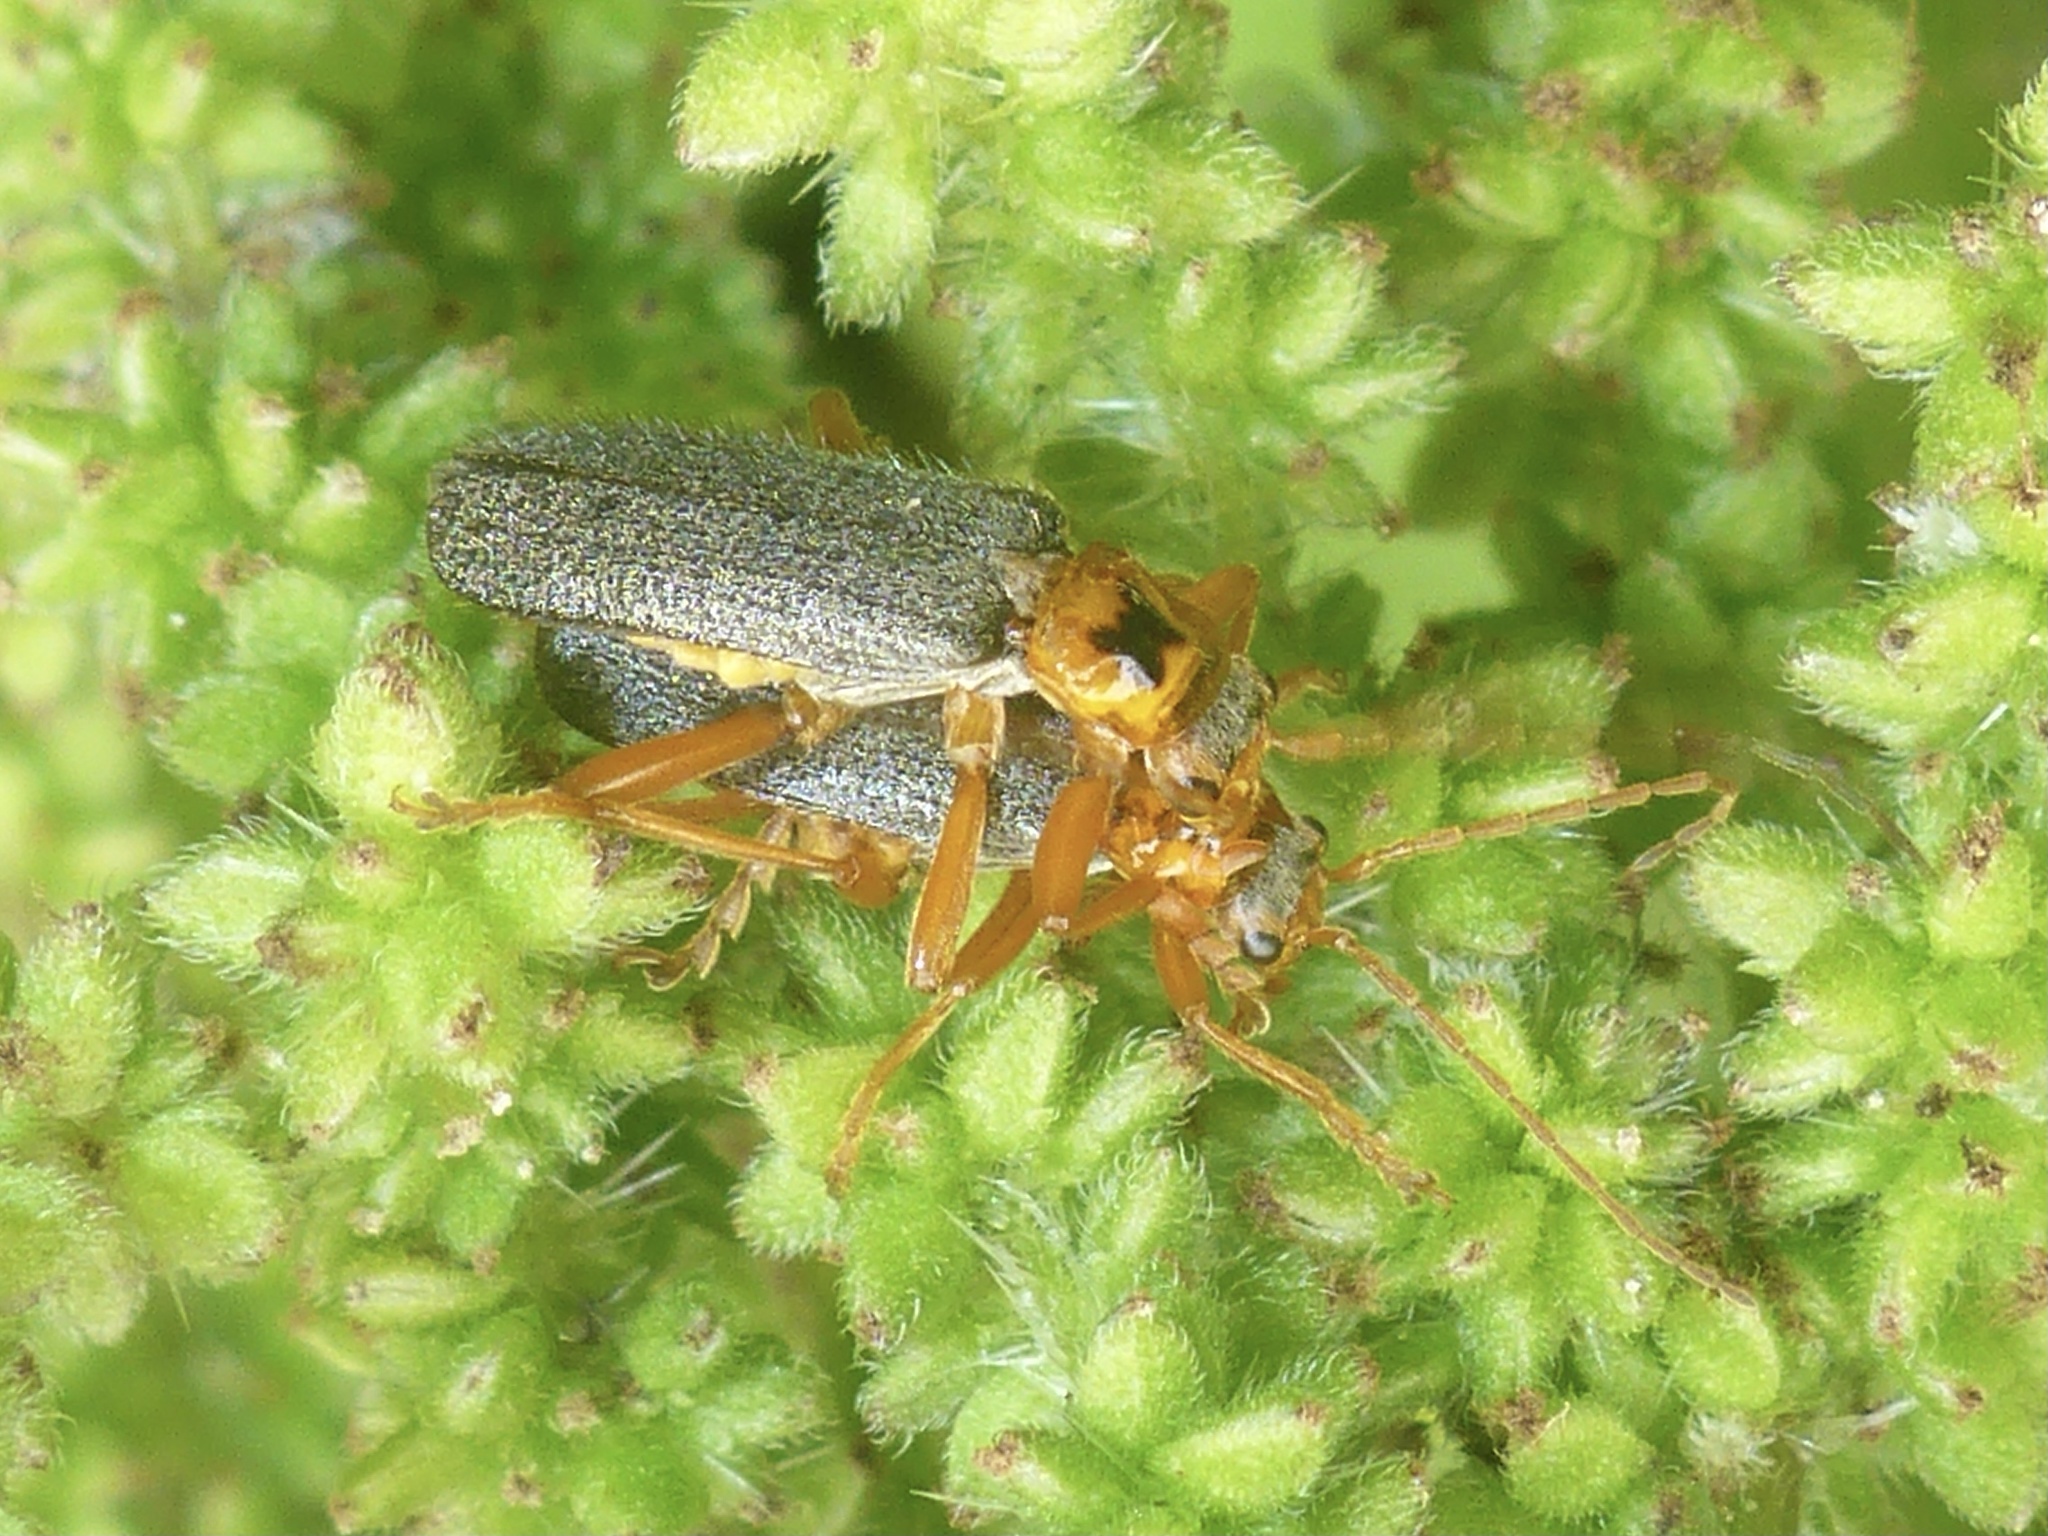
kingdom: Animalia
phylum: Arthropoda
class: Insecta
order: Coleoptera
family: Cantharidae
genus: Cultellunguis
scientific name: Cultellunguis americanus
